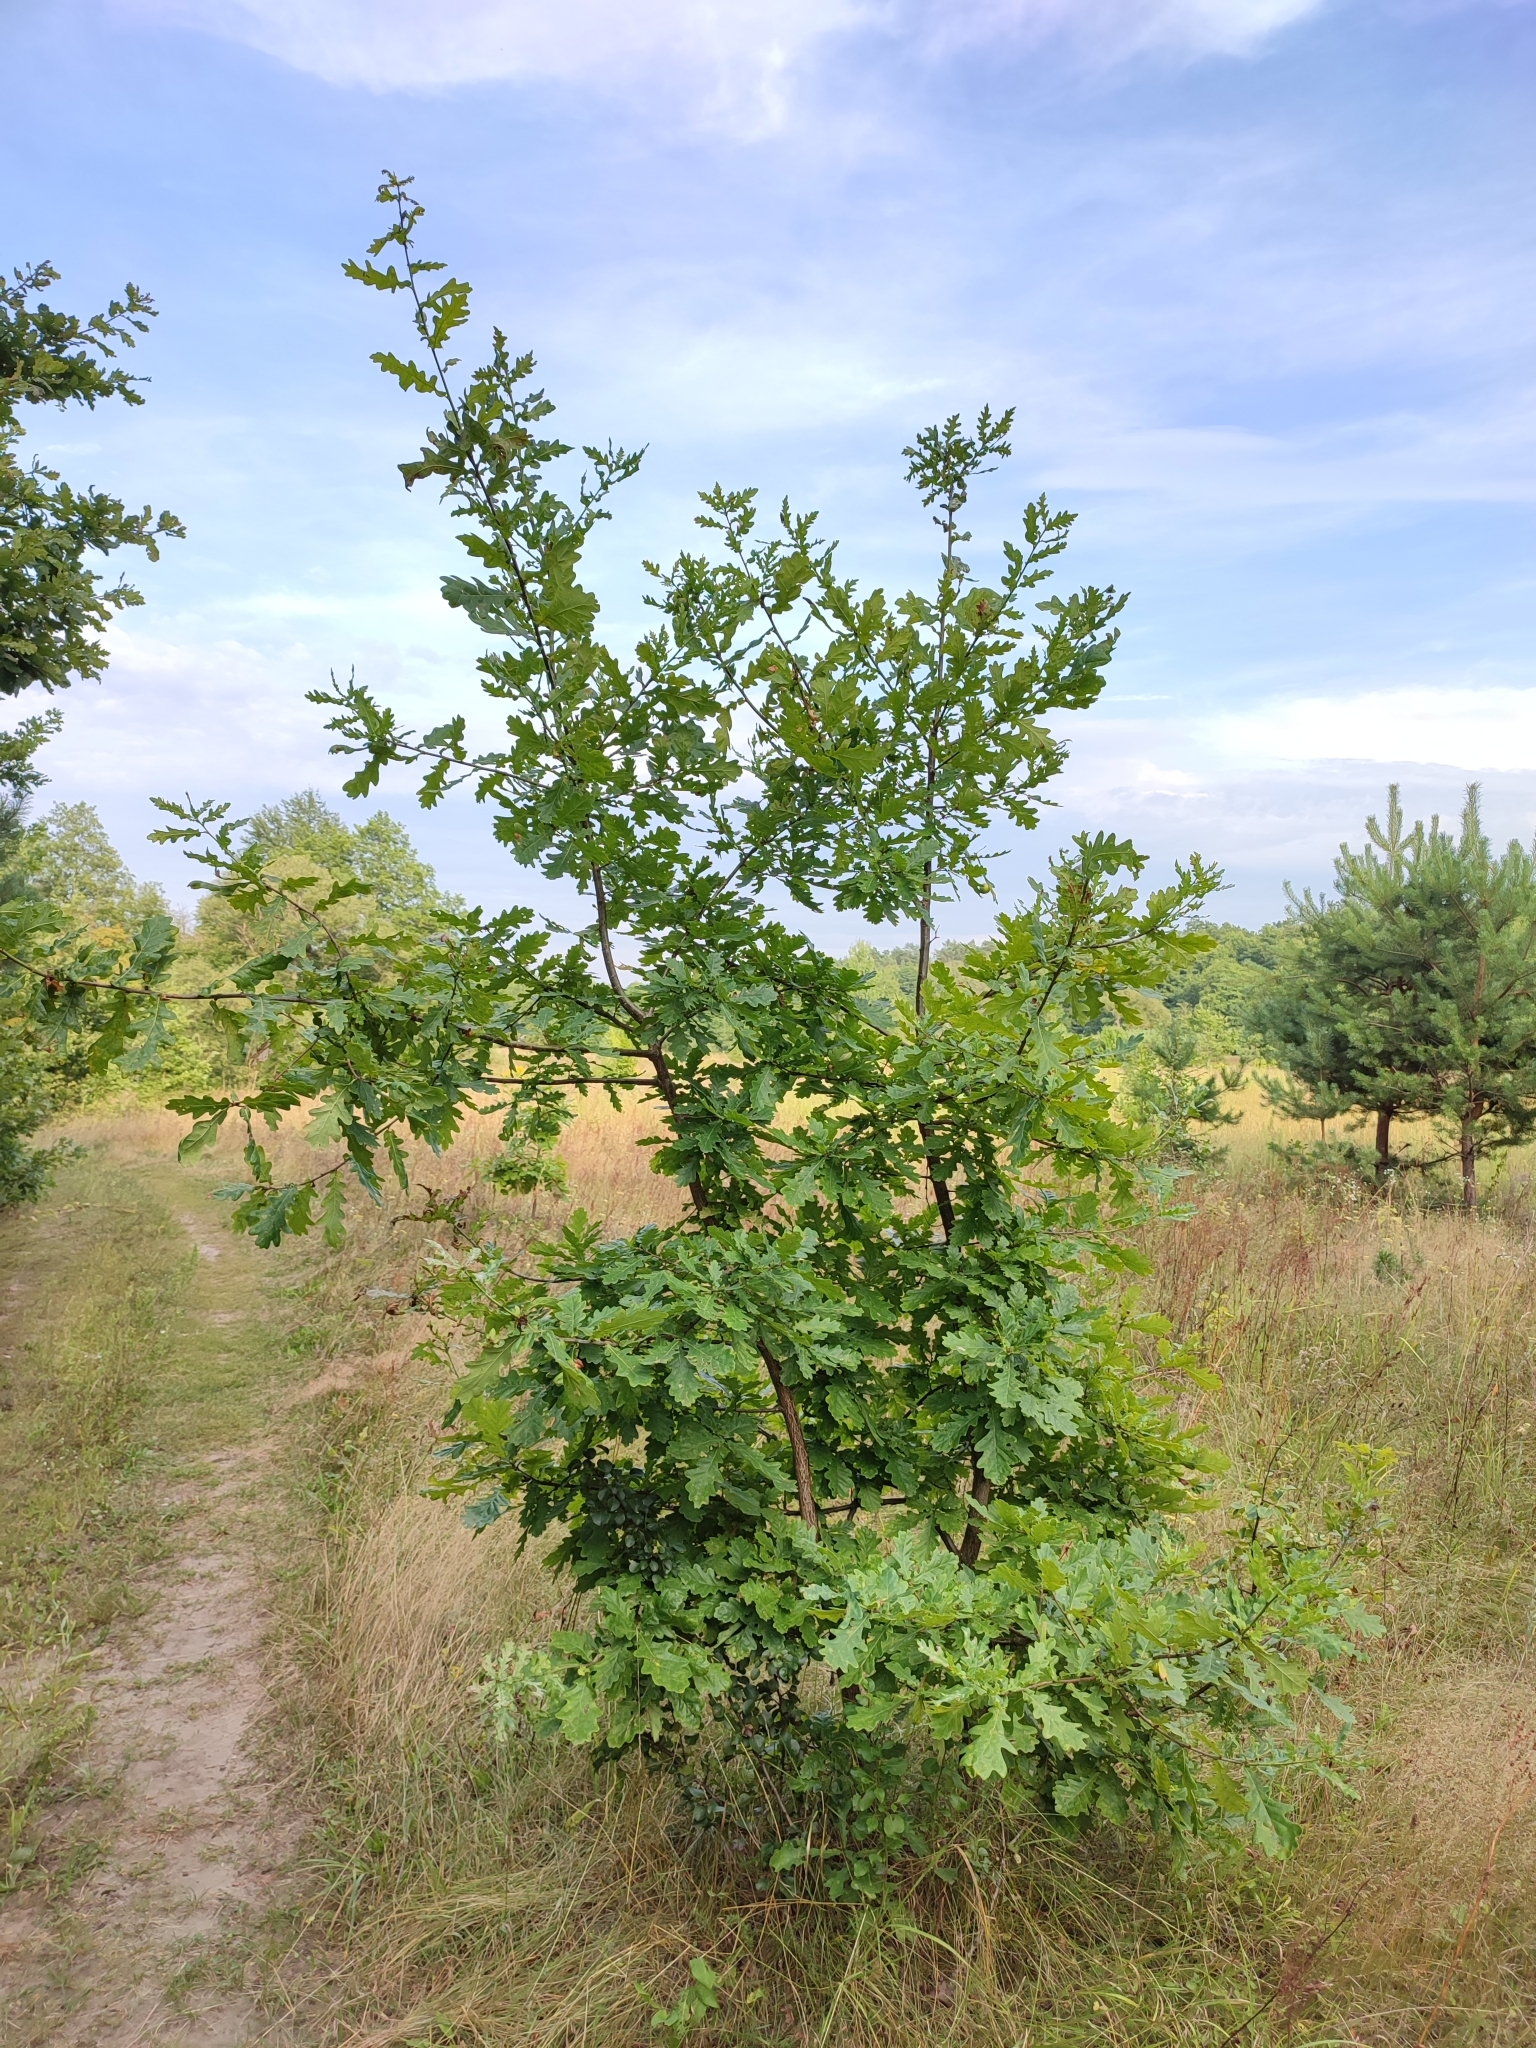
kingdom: Plantae
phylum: Tracheophyta
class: Magnoliopsida
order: Fagales
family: Fagaceae
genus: Quercus
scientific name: Quercus robur
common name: Pedunculate oak
